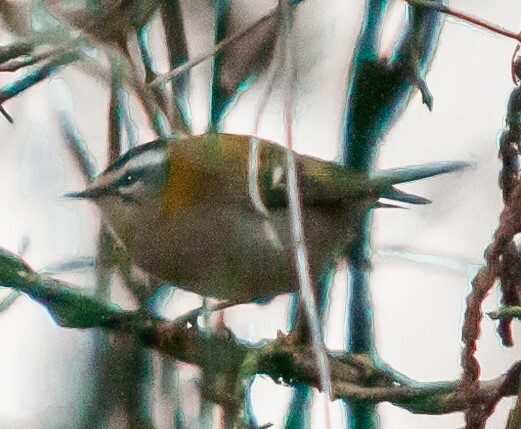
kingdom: Animalia
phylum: Chordata
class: Aves
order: Passeriformes
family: Regulidae
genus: Regulus
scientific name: Regulus ignicapilla
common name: Firecrest
